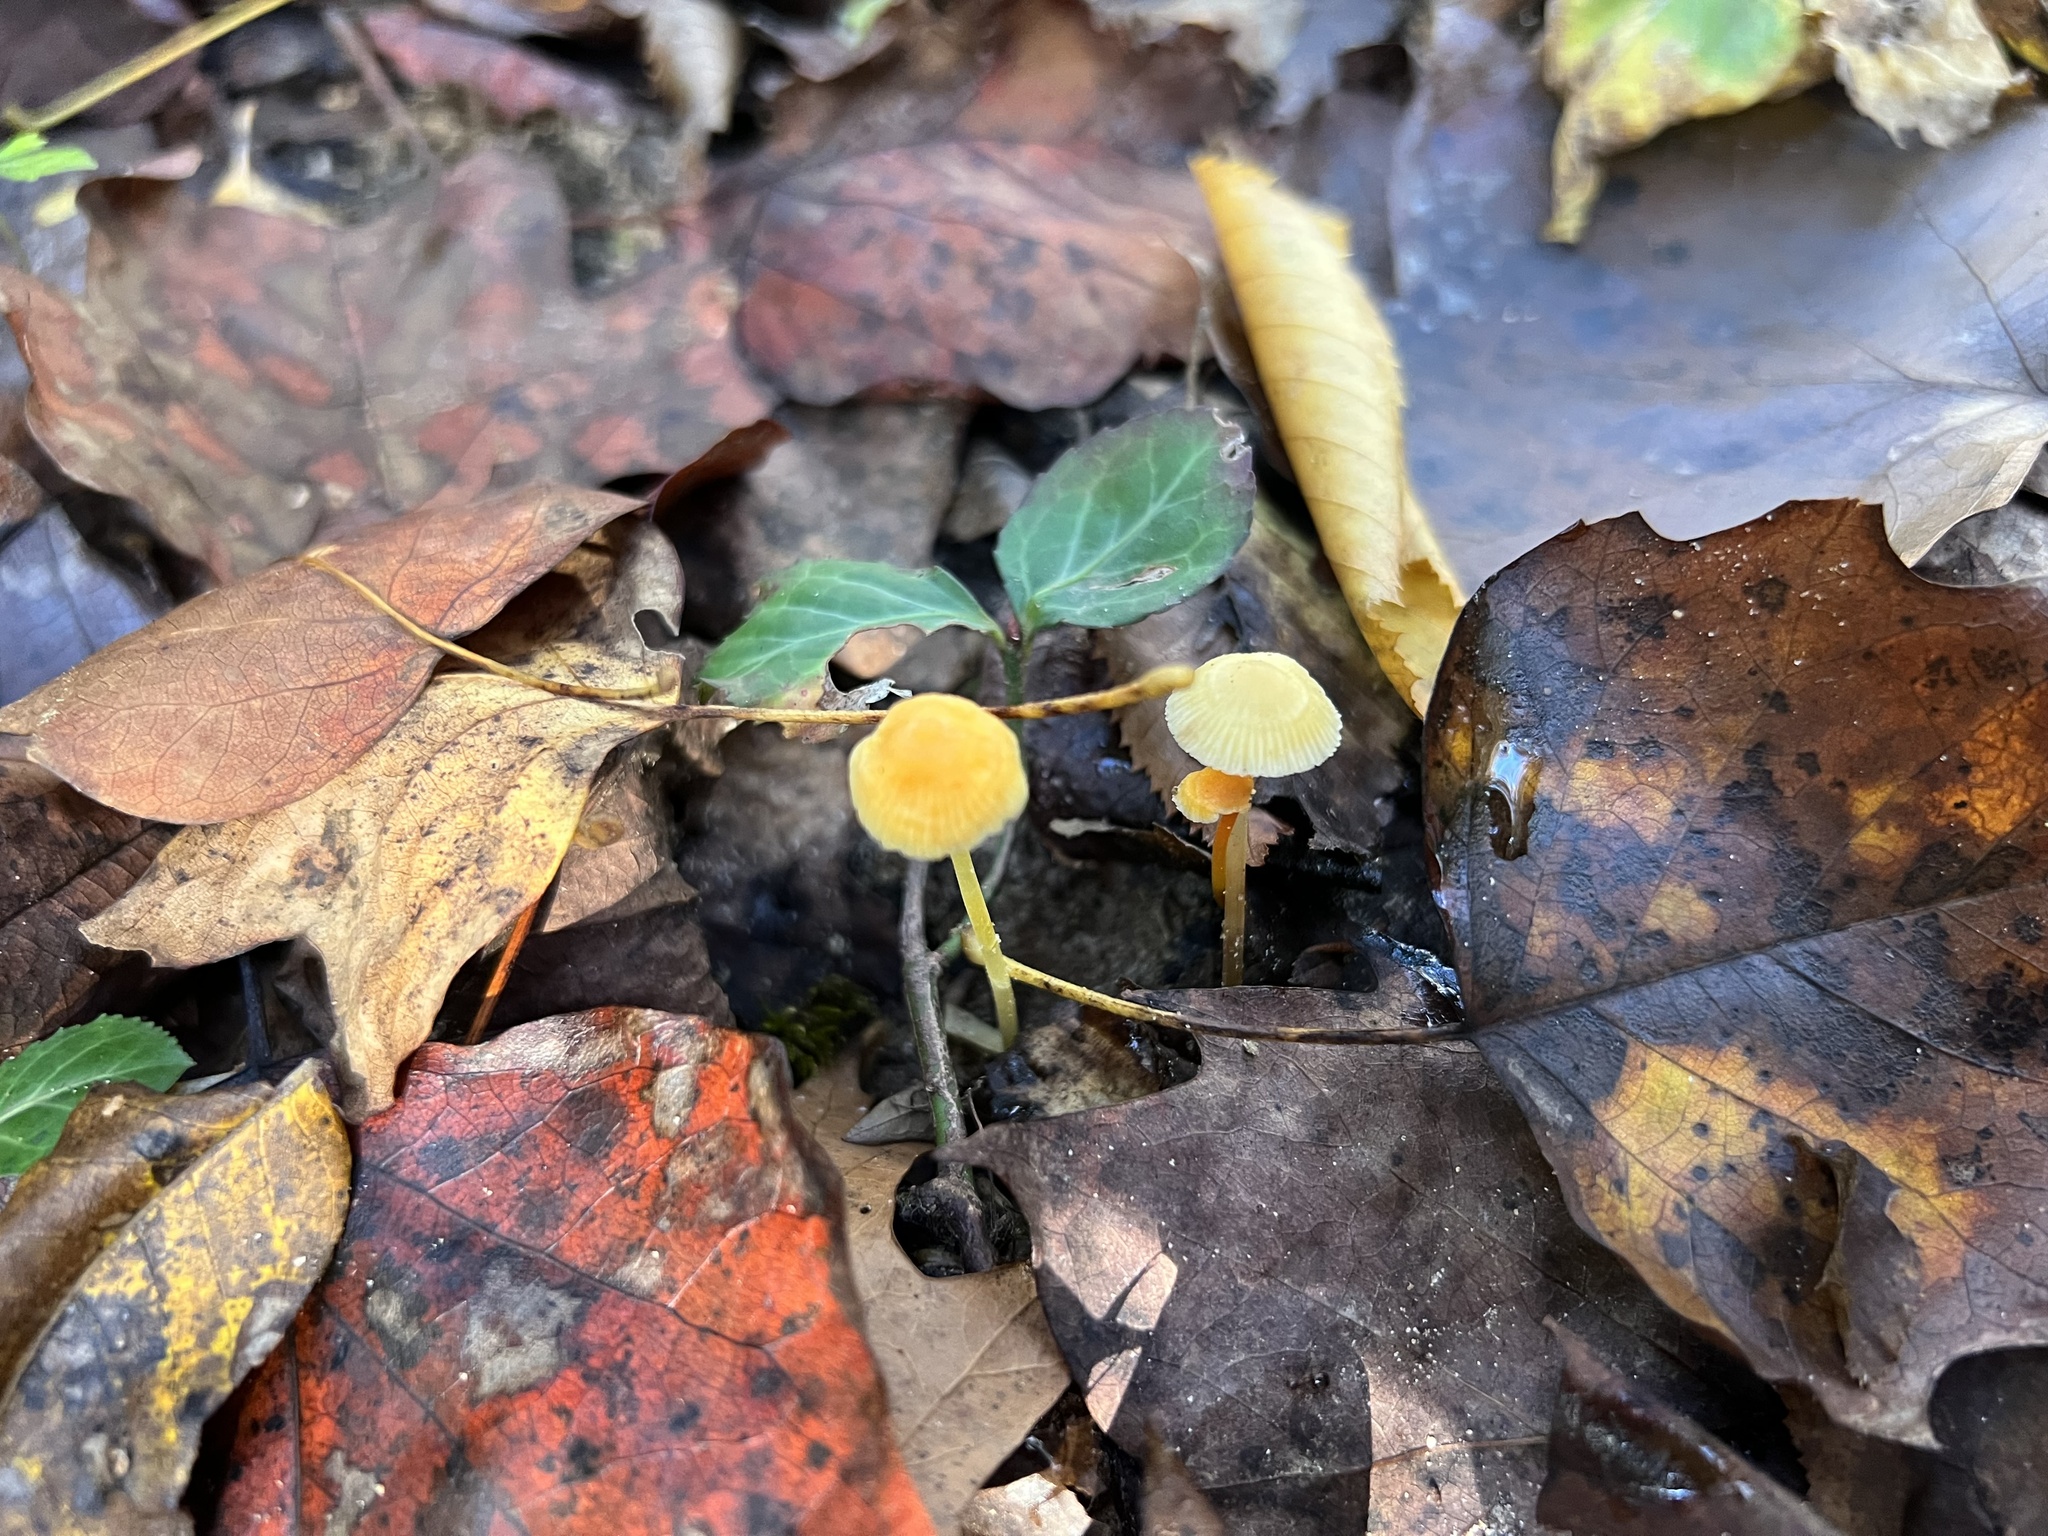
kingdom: Fungi
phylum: Basidiomycota
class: Agaricomycetes
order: Agaricales
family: Mycenaceae
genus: Mycena
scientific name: Mycena crocea
